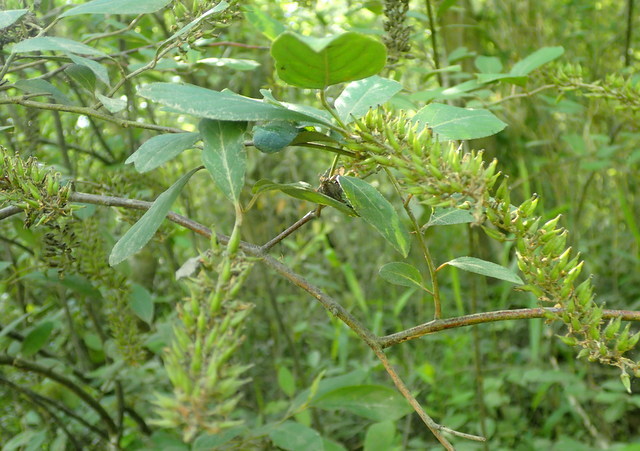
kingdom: Plantae
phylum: Tracheophyta
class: Magnoliopsida
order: Saxifragales
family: Iteaceae
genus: Itea
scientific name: Itea virginica
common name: Sweetspire
